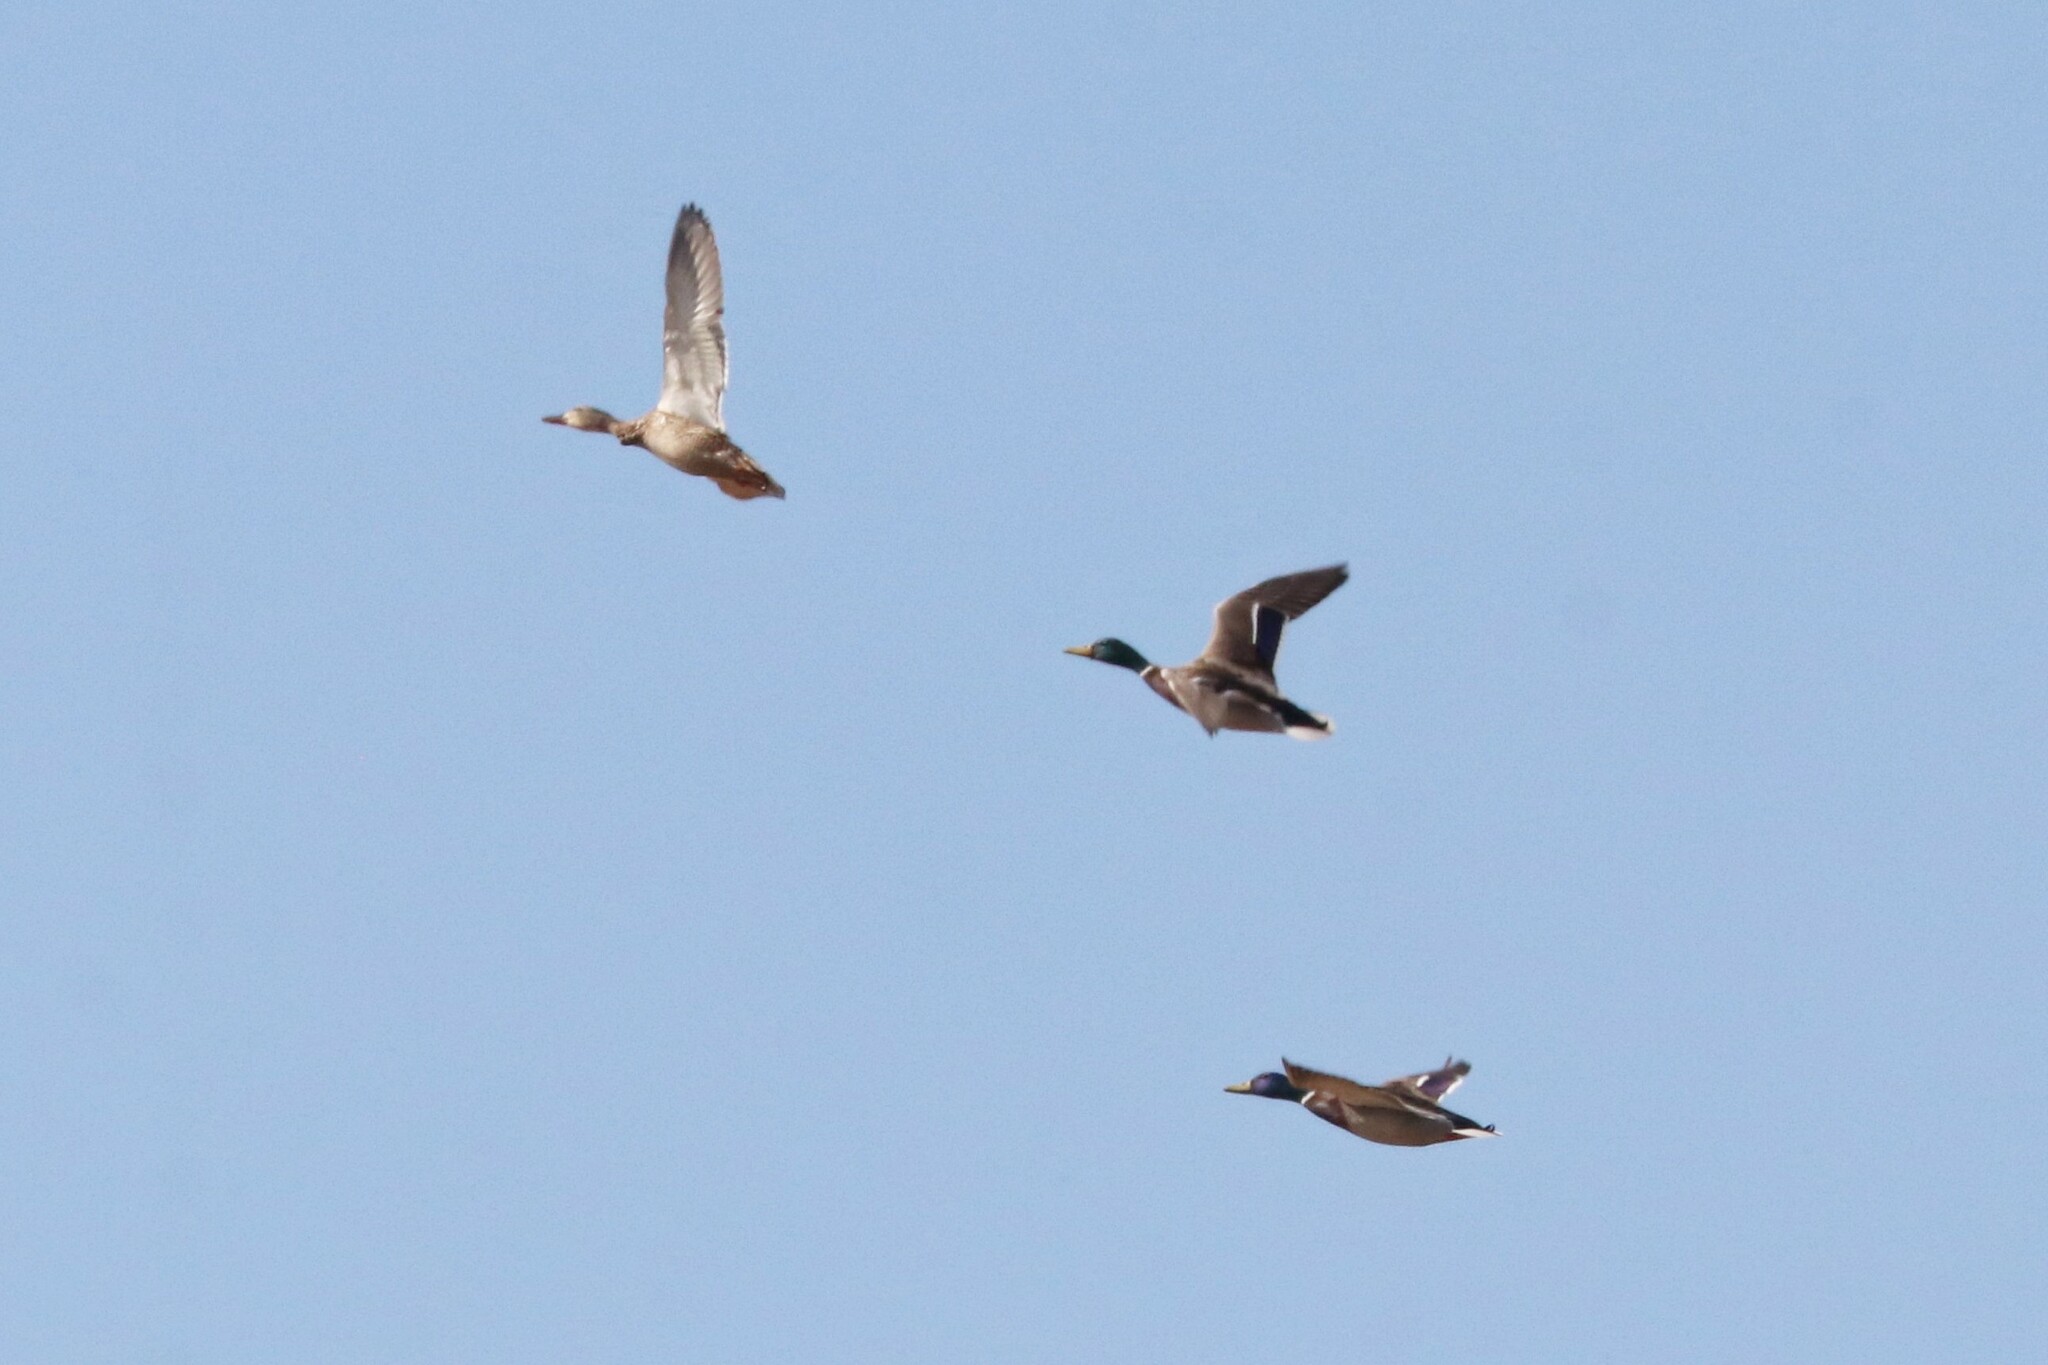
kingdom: Animalia
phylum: Chordata
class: Aves
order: Anseriformes
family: Anatidae
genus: Anas
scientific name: Anas platyrhynchos
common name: Mallard
